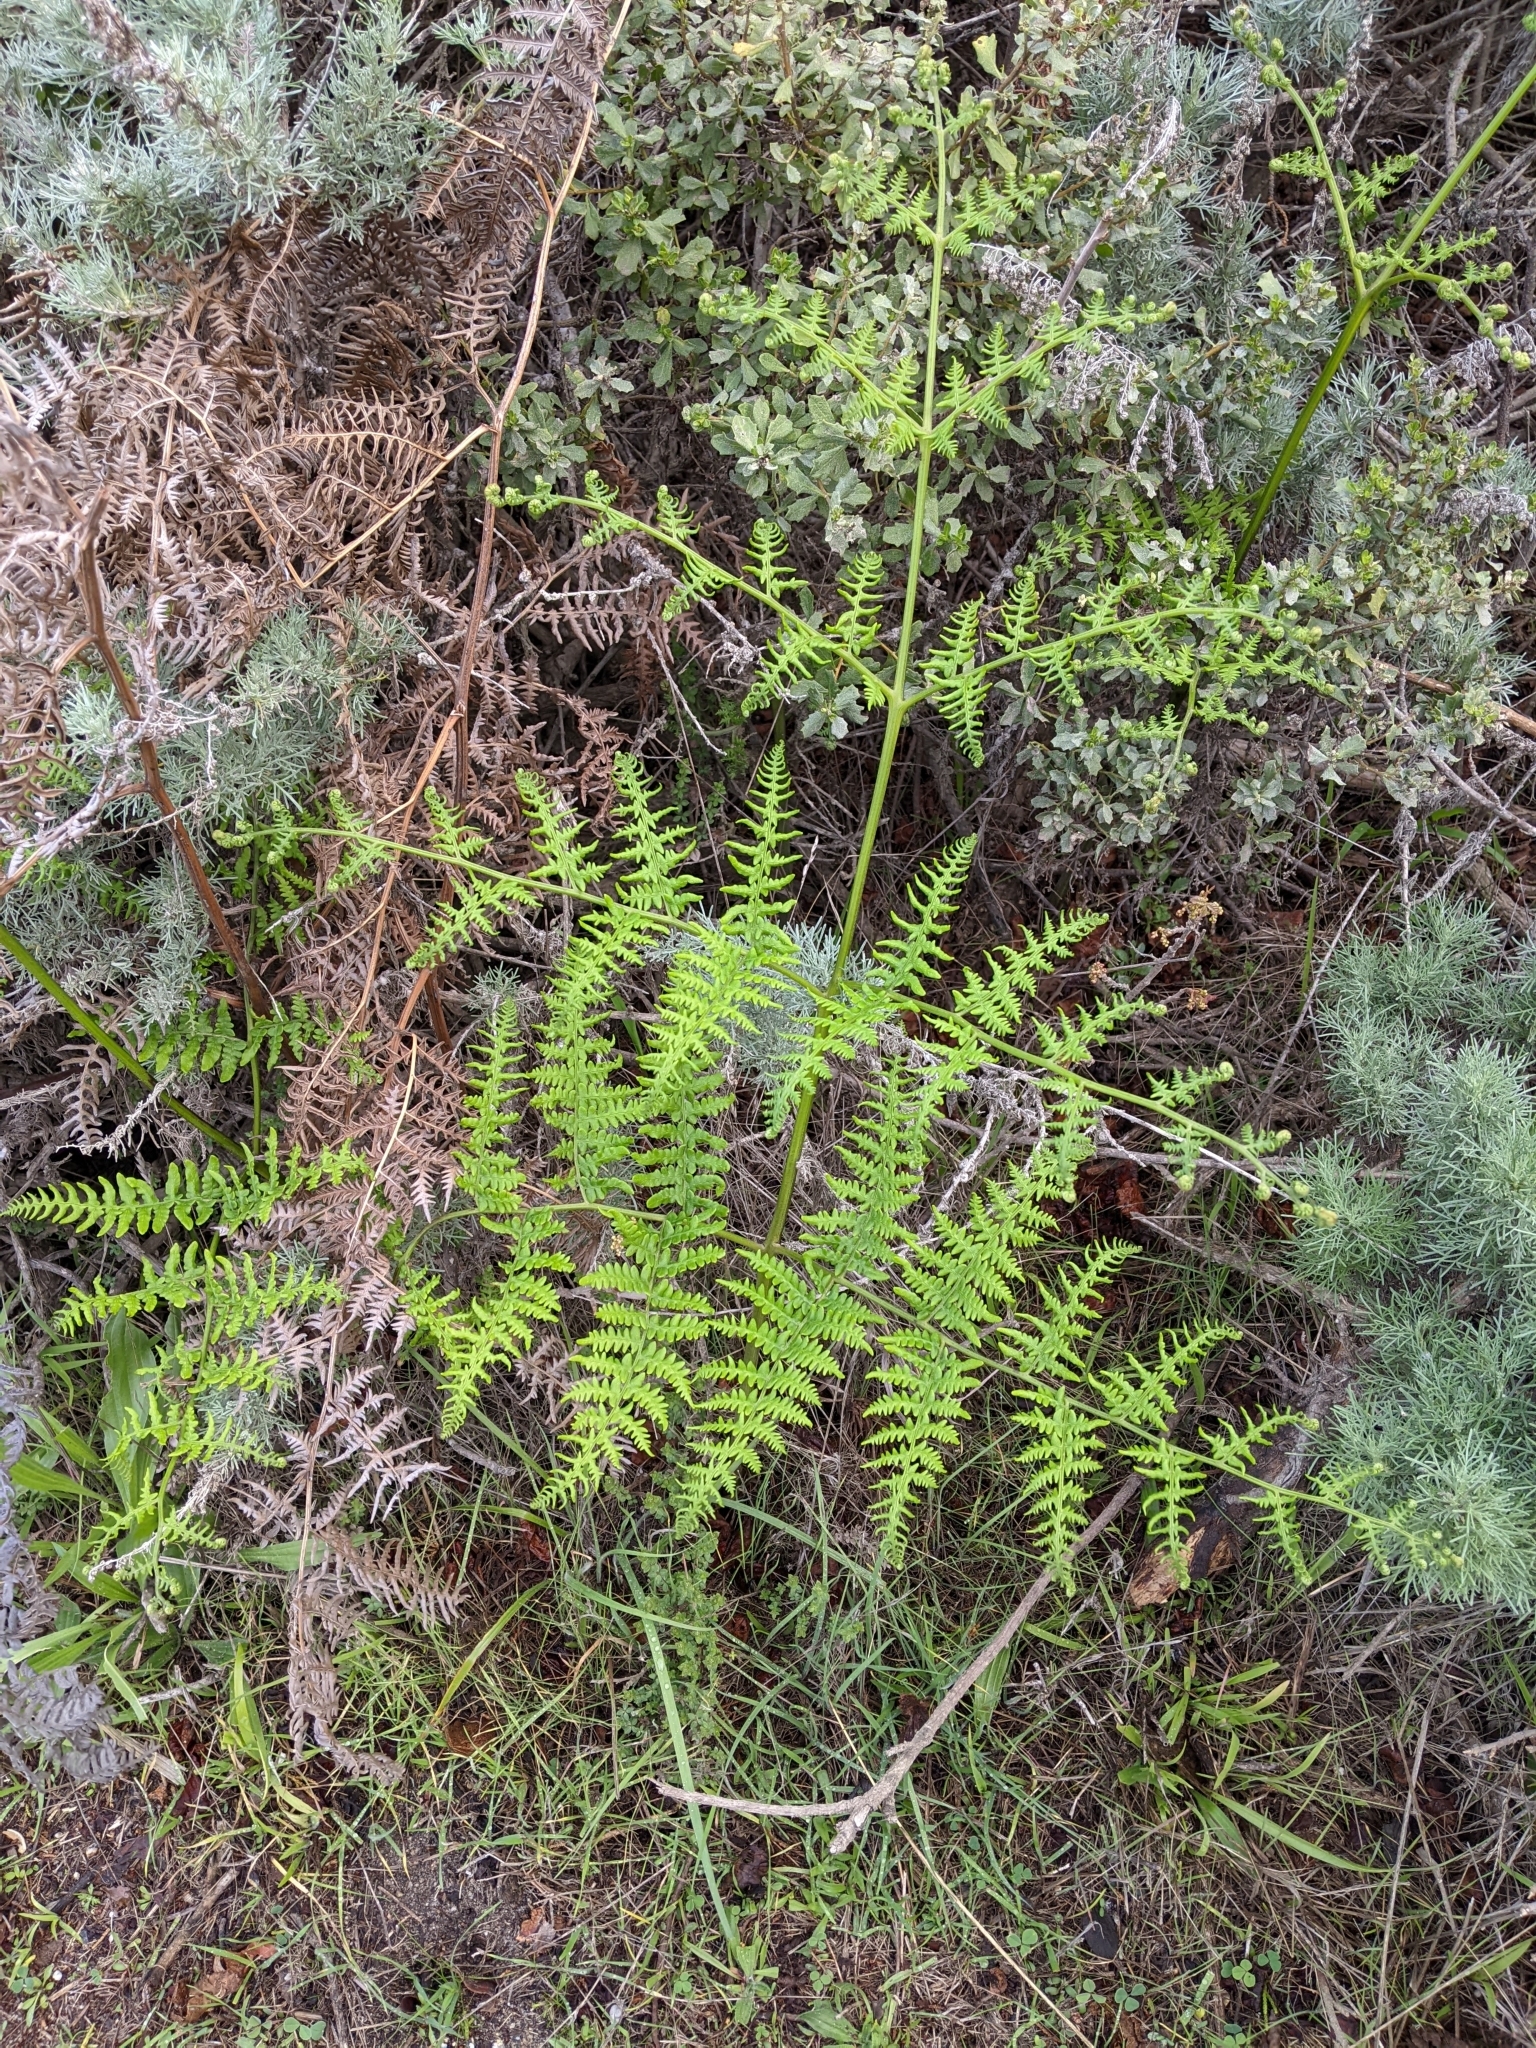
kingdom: Plantae
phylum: Tracheophyta
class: Polypodiopsida
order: Polypodiales
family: Dennstaedtiaceae
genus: Pteridium
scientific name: Pteridium aquilinum
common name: Bracken
